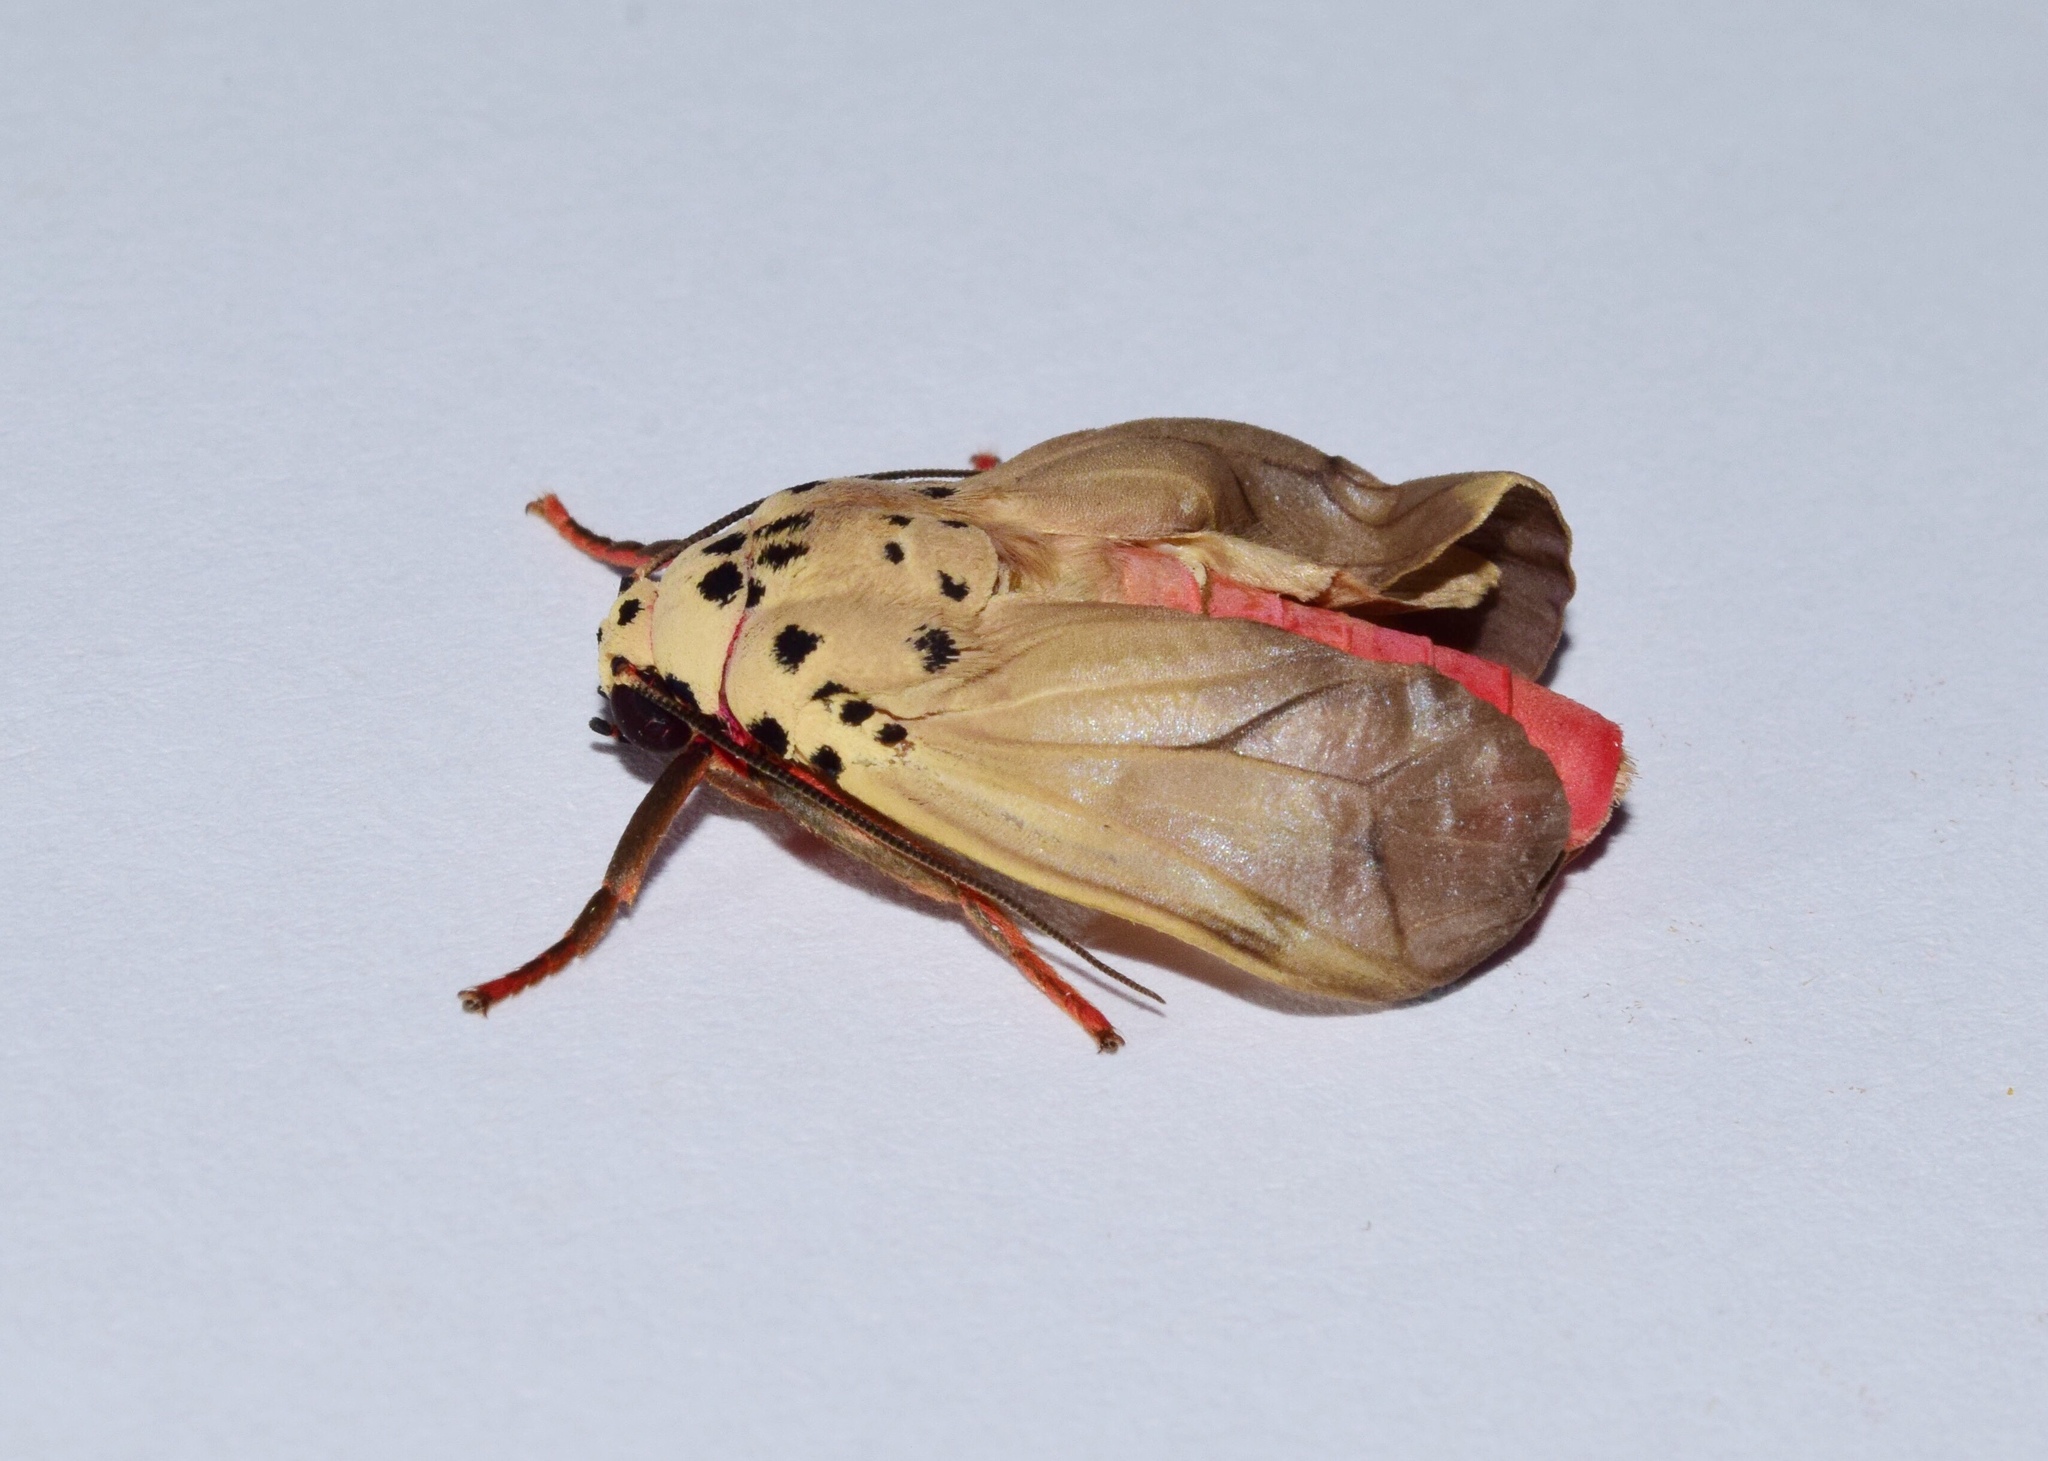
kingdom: Animalia
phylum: Arthropoda
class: Insecta
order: Lepidoptera
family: Erebidae
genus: Amerila
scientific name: Amerila affinis
